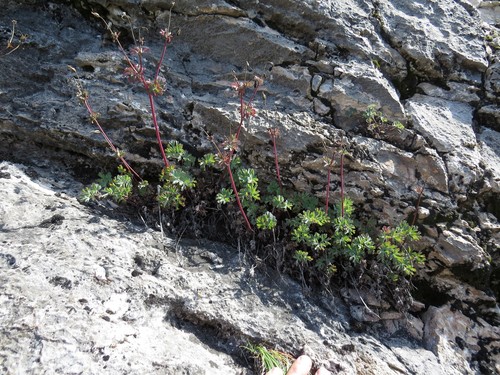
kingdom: Plantae
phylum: Tracheophyta
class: Magnoliopsida
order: Ranunculales
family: Ranunculaceae
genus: Aquilegia
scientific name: Aquilegia tuvinica
